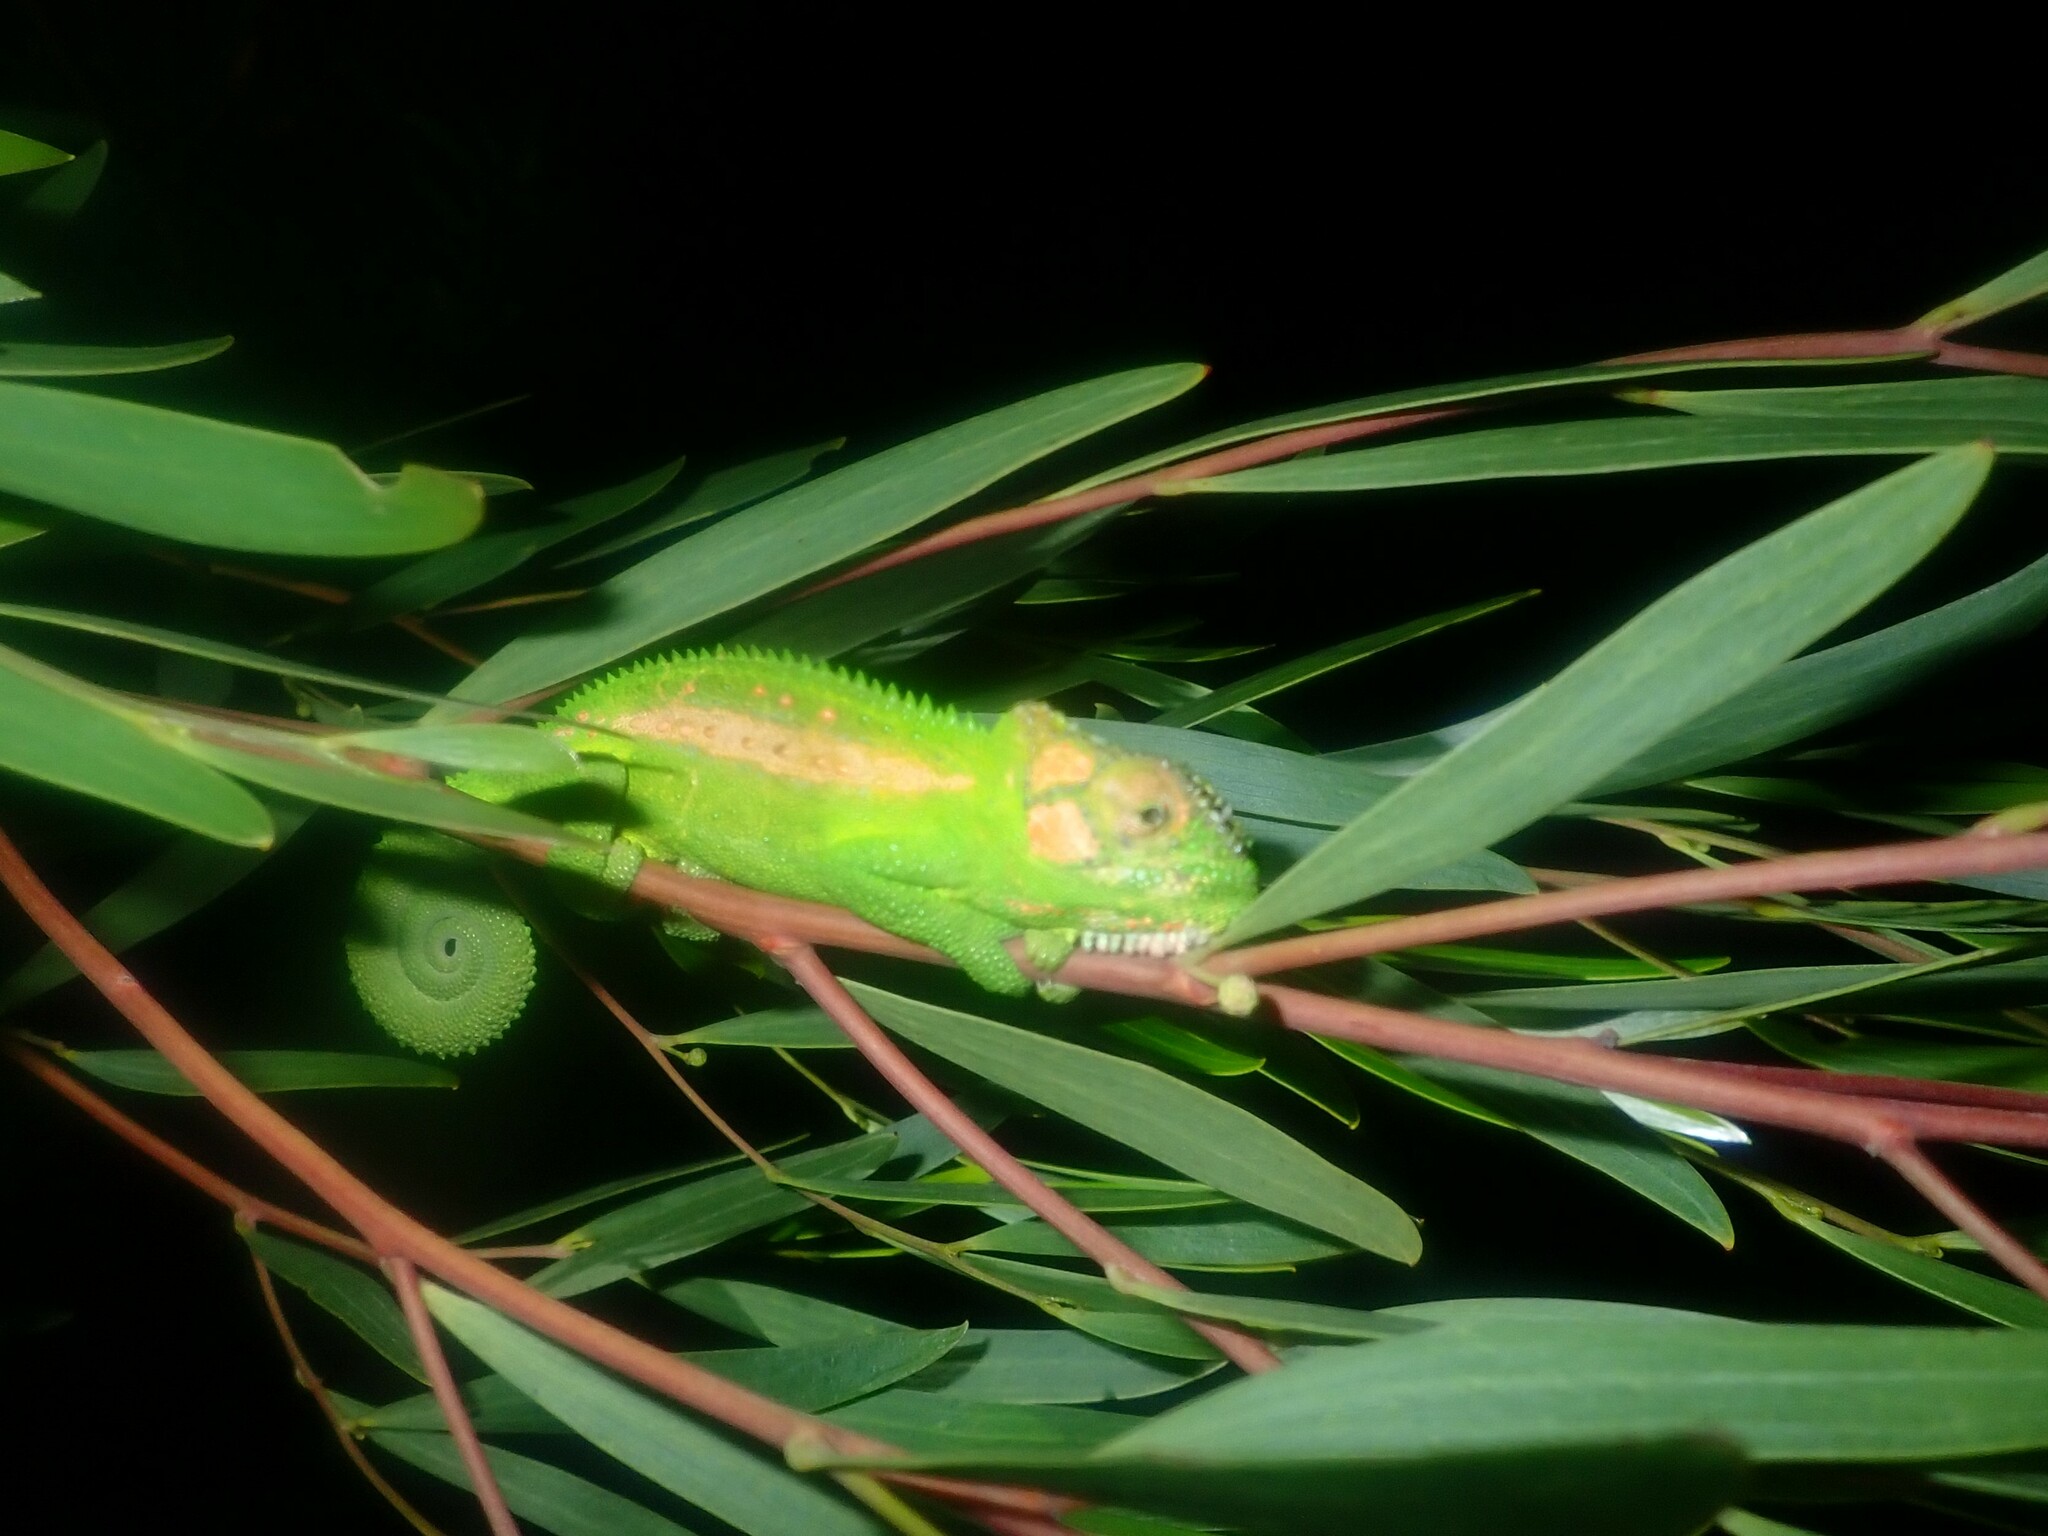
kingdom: Animalia
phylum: Chordata
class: Squamata
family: Chamaeleonidae
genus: Bradypodion
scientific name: Bradypodion pumilum
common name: Cape dwarf chameleon
